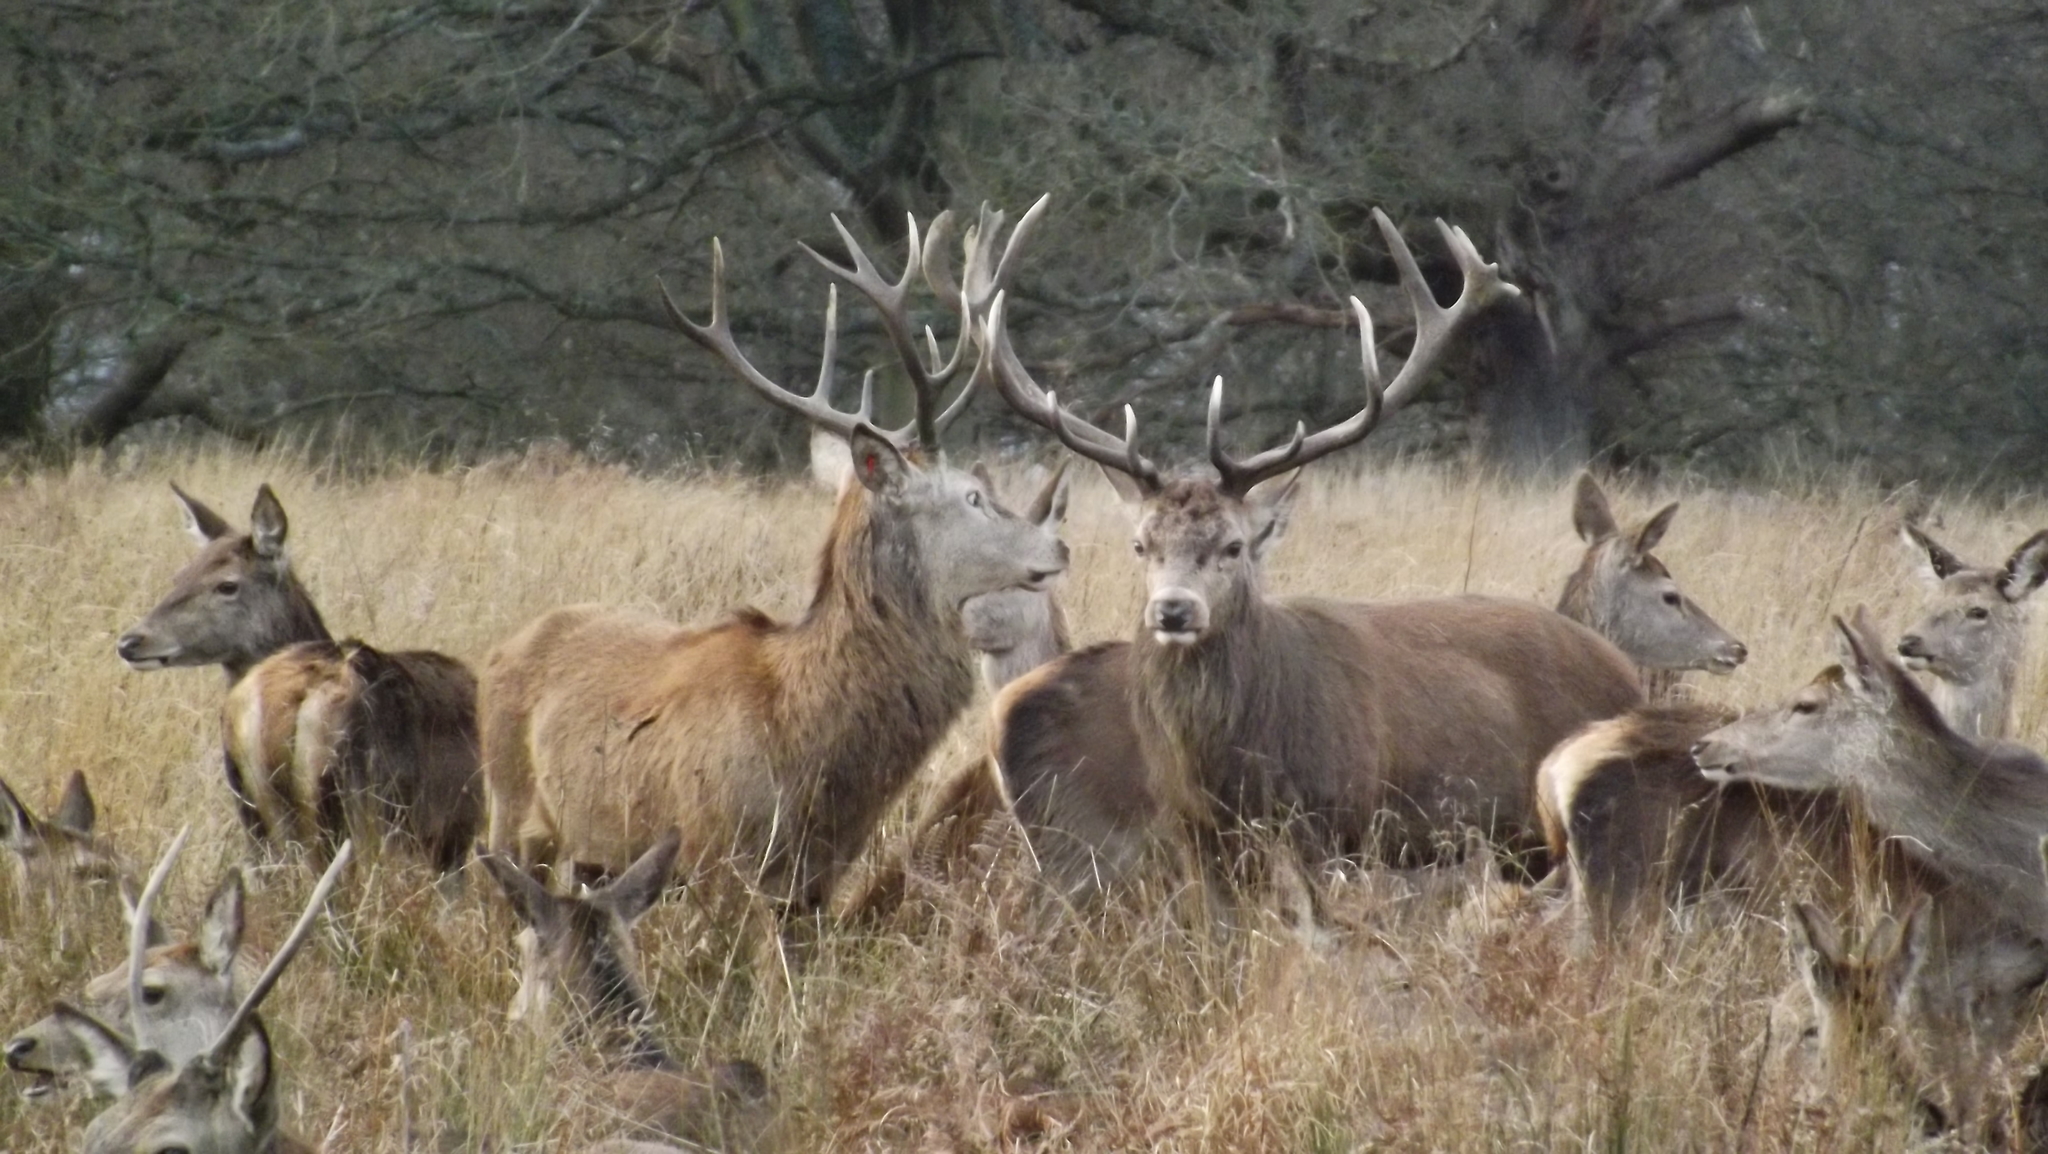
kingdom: Animalia
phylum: Chordata
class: Mammalia
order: Artiodactyla
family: Cervidae
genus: Cervus
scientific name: Cervus elaphus
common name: Red deer
